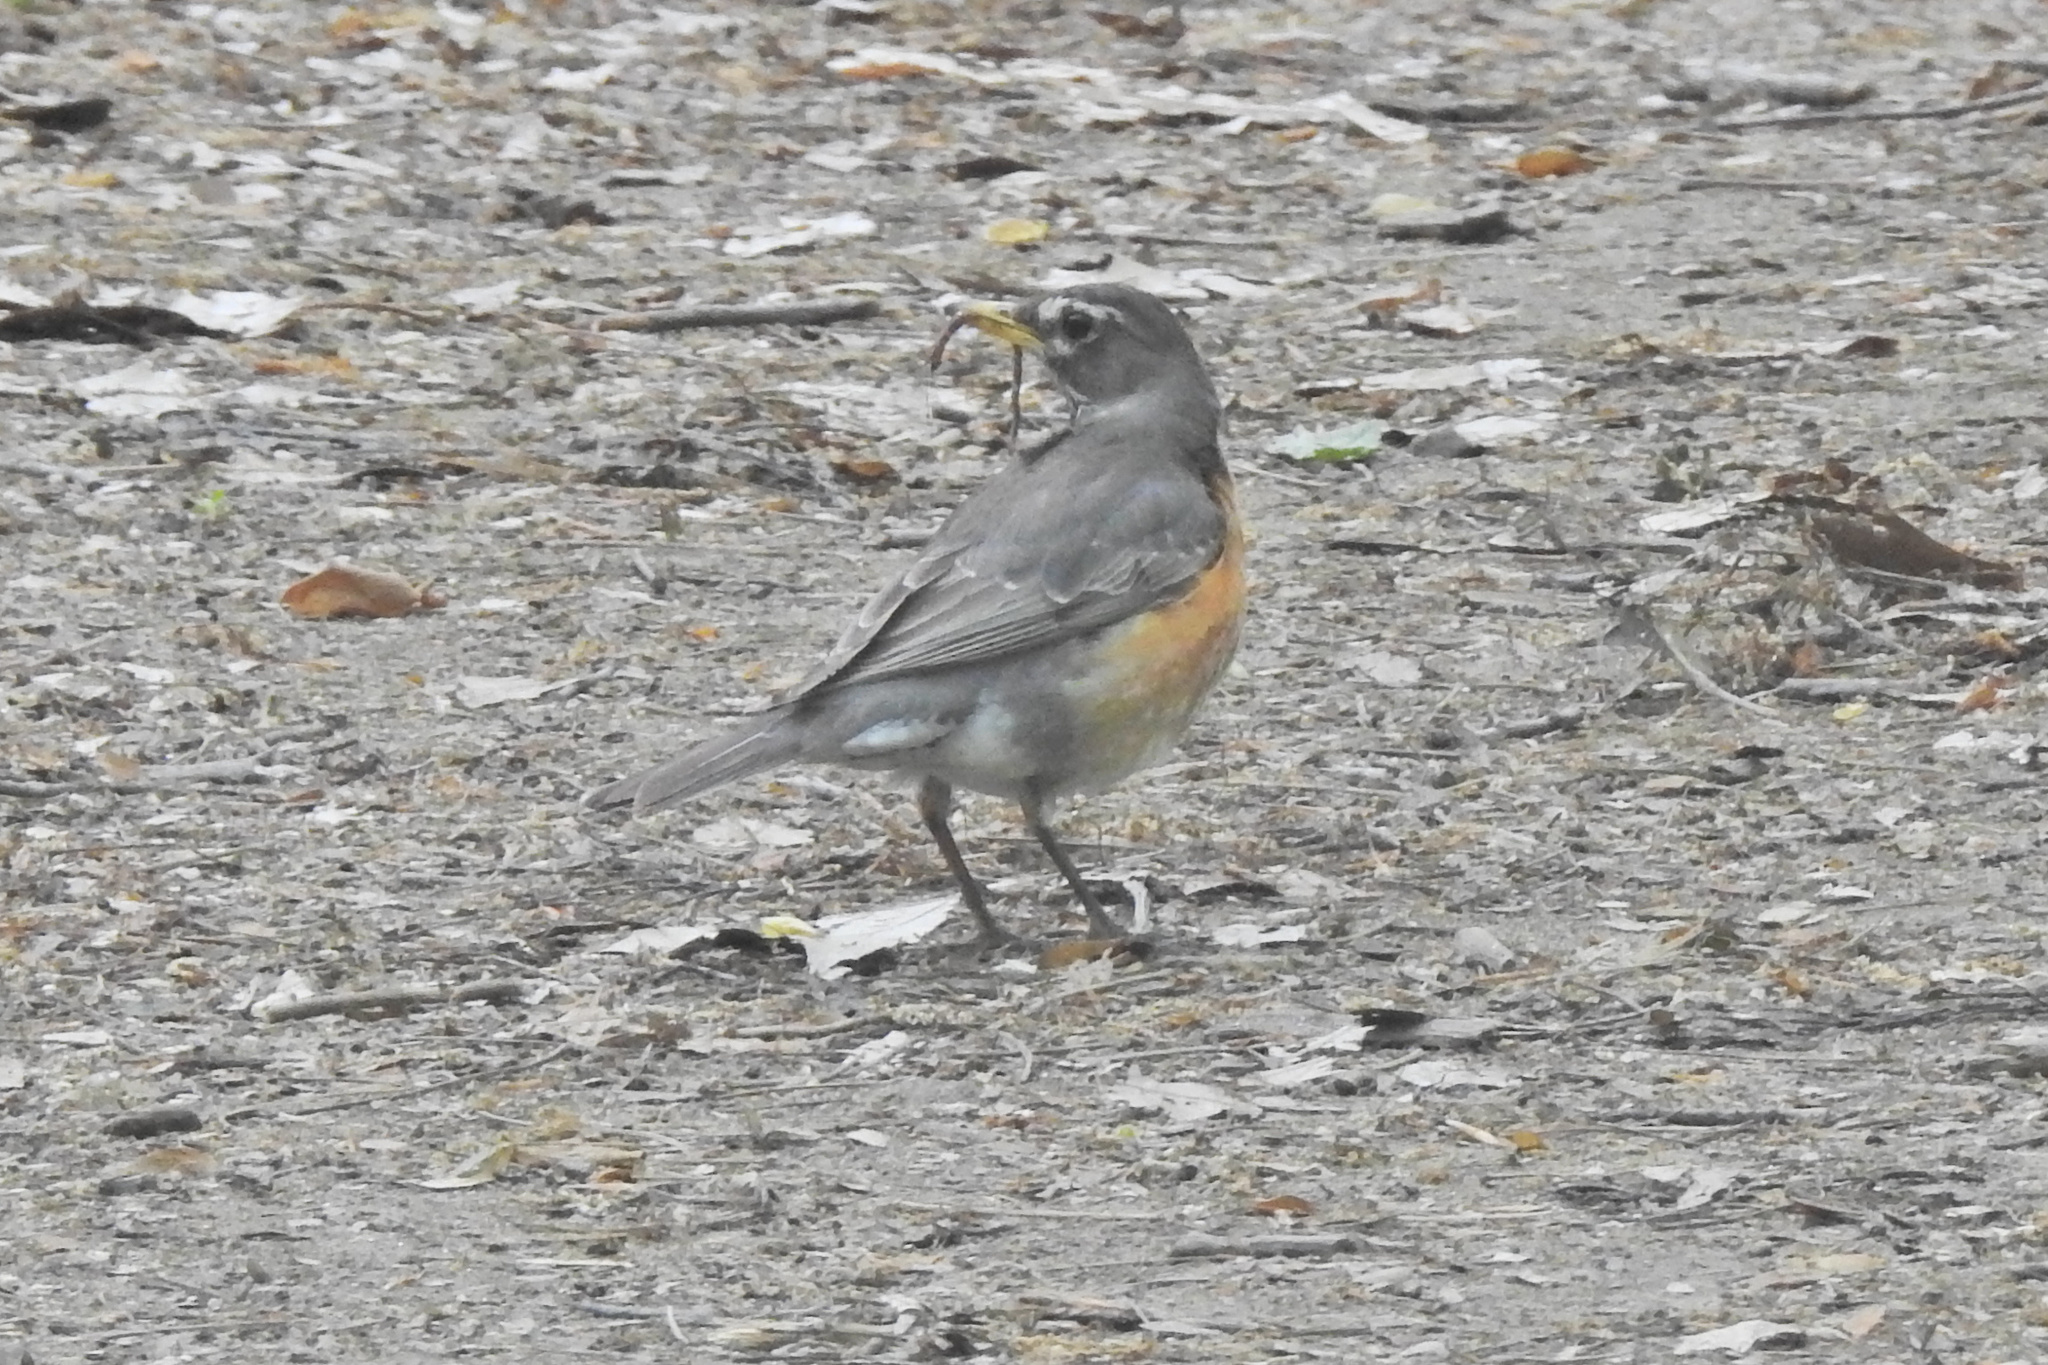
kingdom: Animalia
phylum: Chordata
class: Aves
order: Passeriformes
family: Turdidae
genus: Turdus
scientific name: Turdus migratorius
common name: American robin
